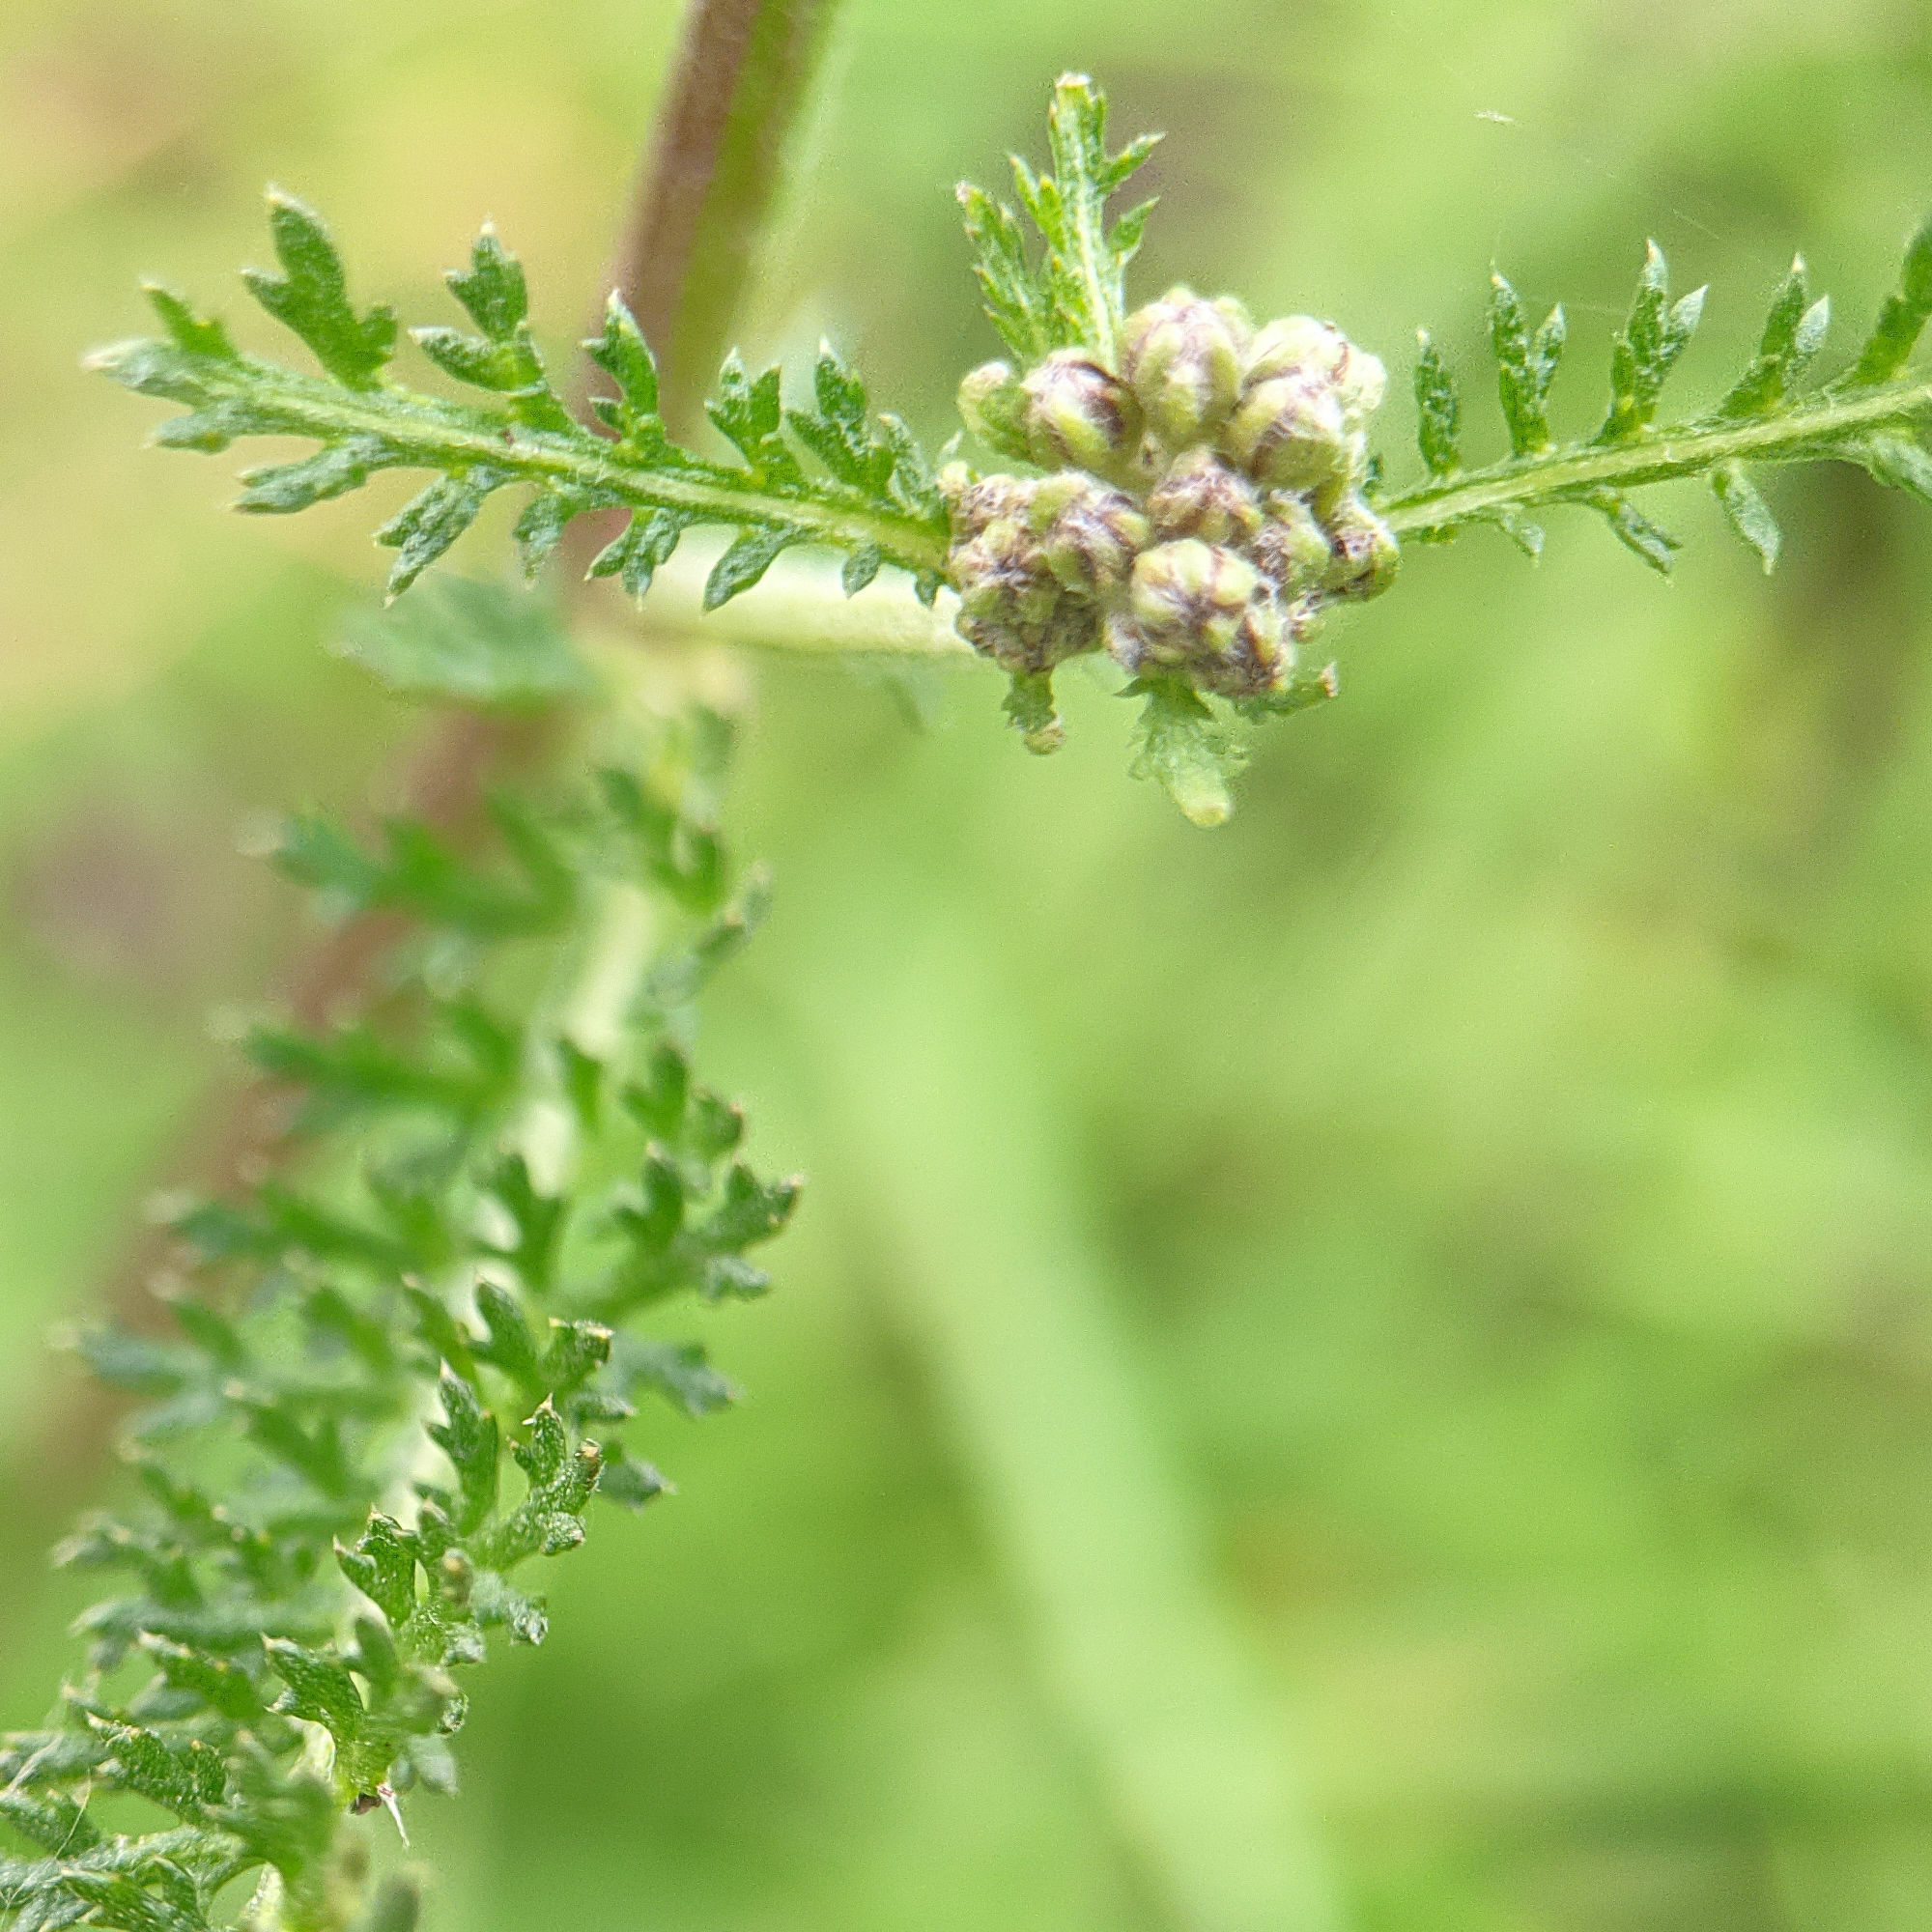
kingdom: Plantae
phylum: Tracheophyta
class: Magnoliopsida
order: Asterales
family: Asteraceae
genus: Achillea
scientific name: Achillea millefolium
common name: Yarrow
